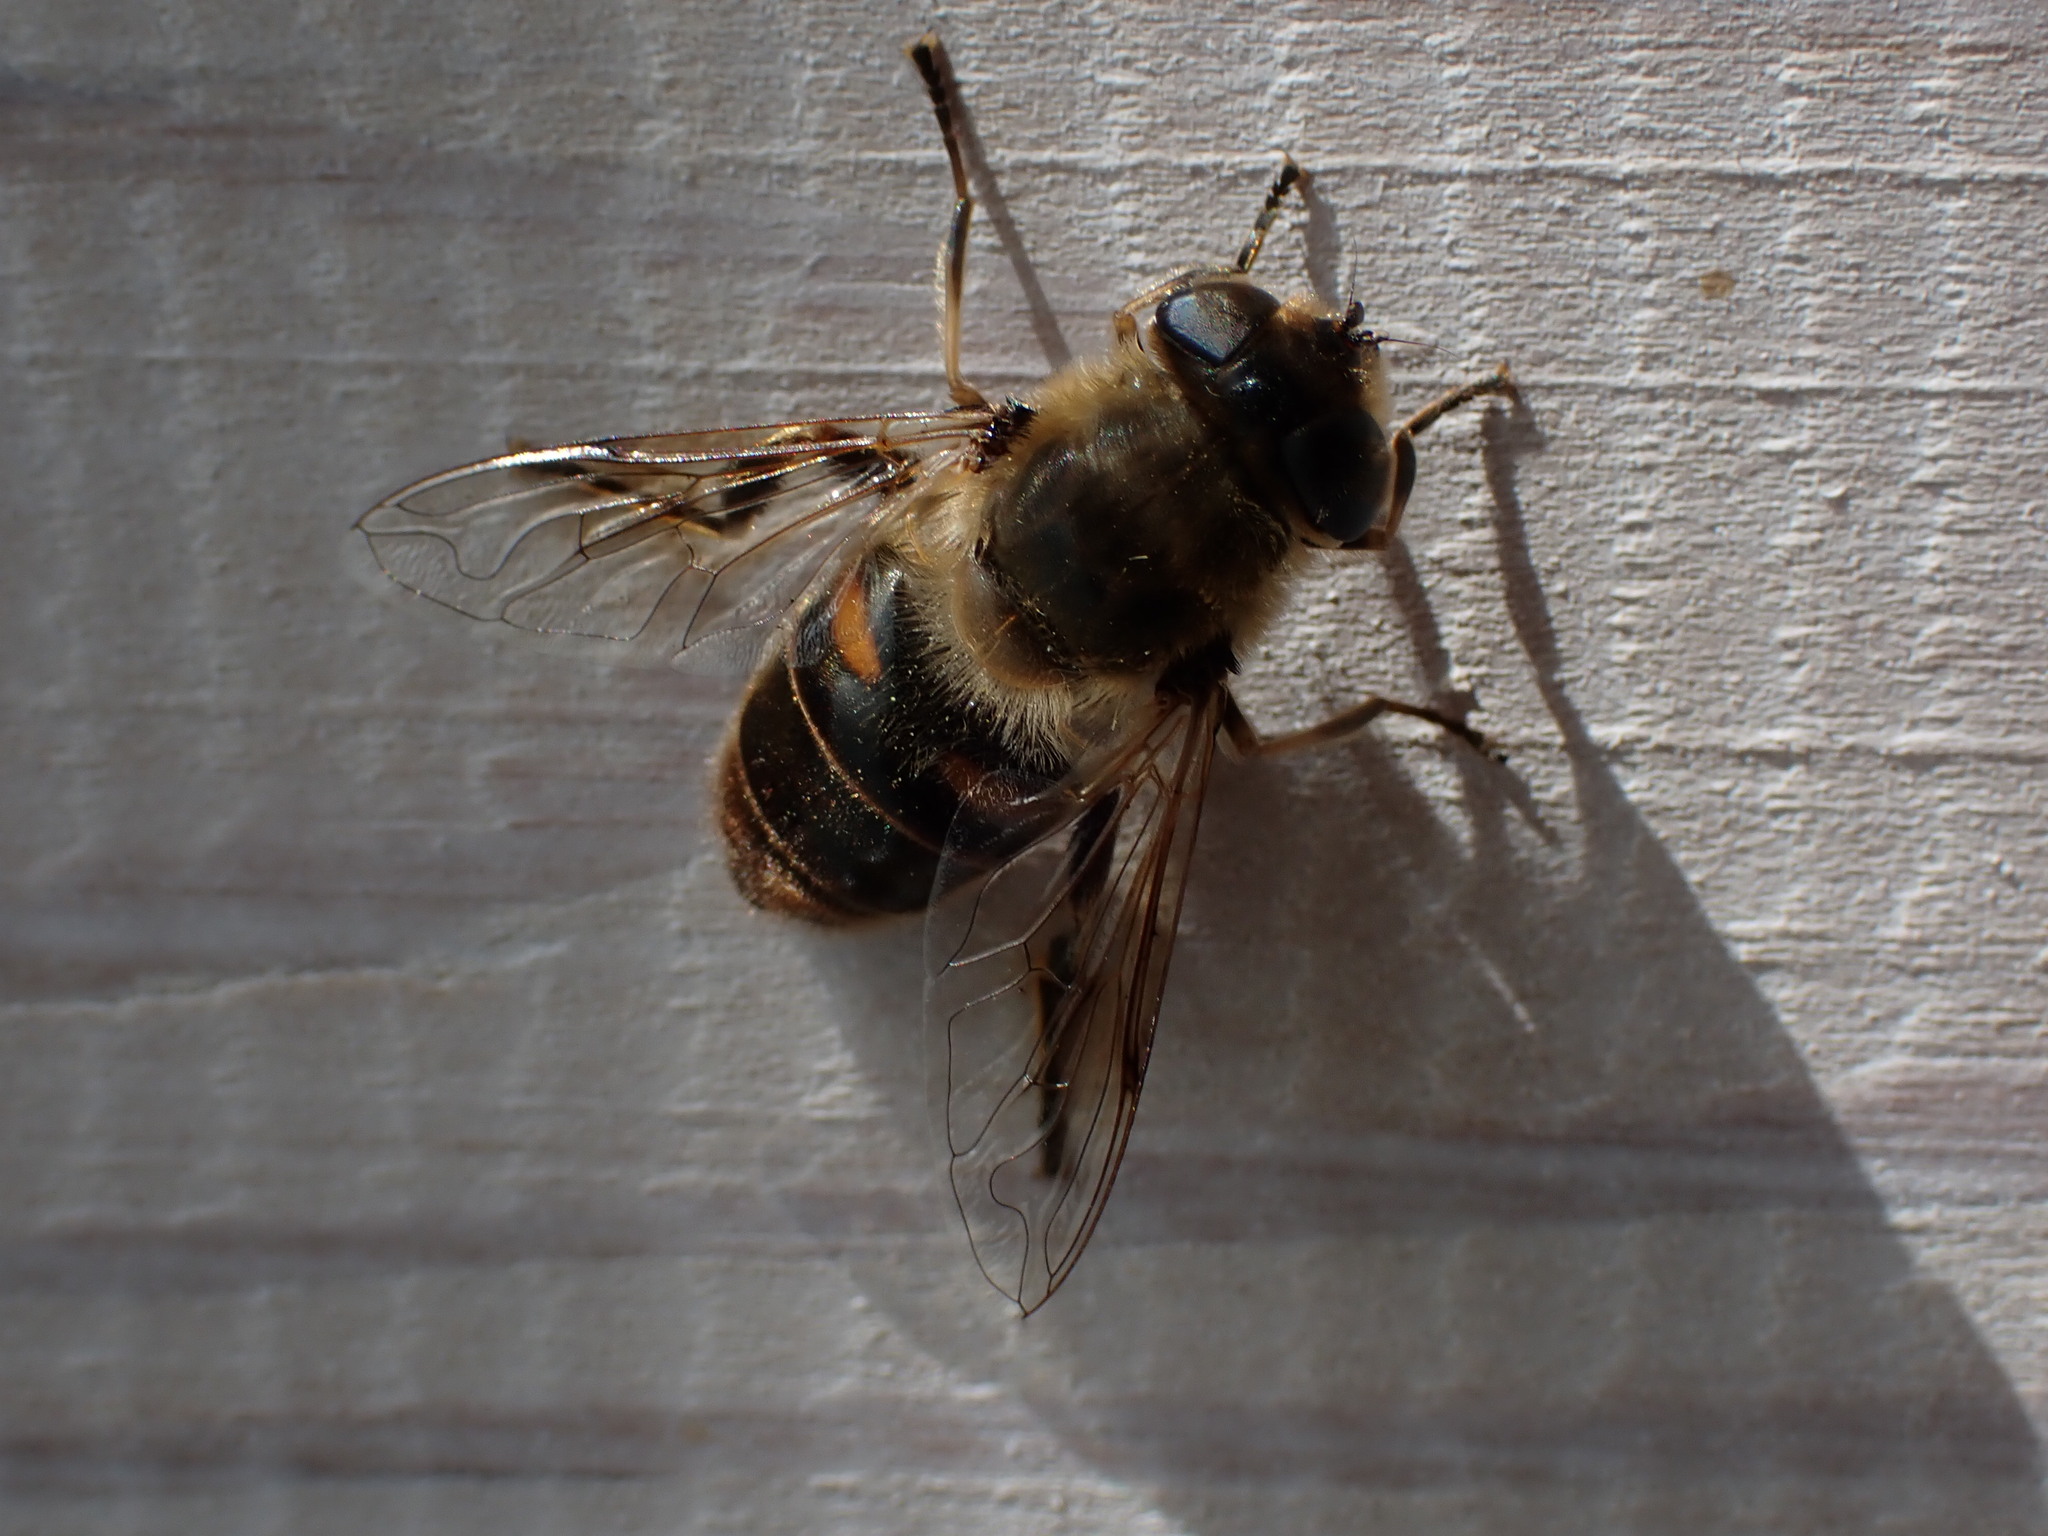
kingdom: Animalia
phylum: Arthropoda
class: Insecta
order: Diptera
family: Syrphidae
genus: Eristalis
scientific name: Eristalis tenax
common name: Drone fly
